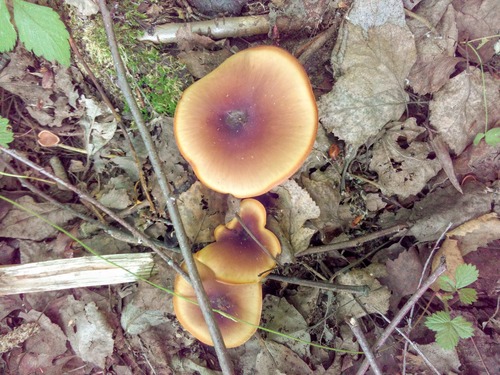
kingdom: Fungi
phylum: Basidiomycota
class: Agaricomycetes
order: Polyporales
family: Polyporaceae
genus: Picipes
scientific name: Picipes badius
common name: Bay polypore
